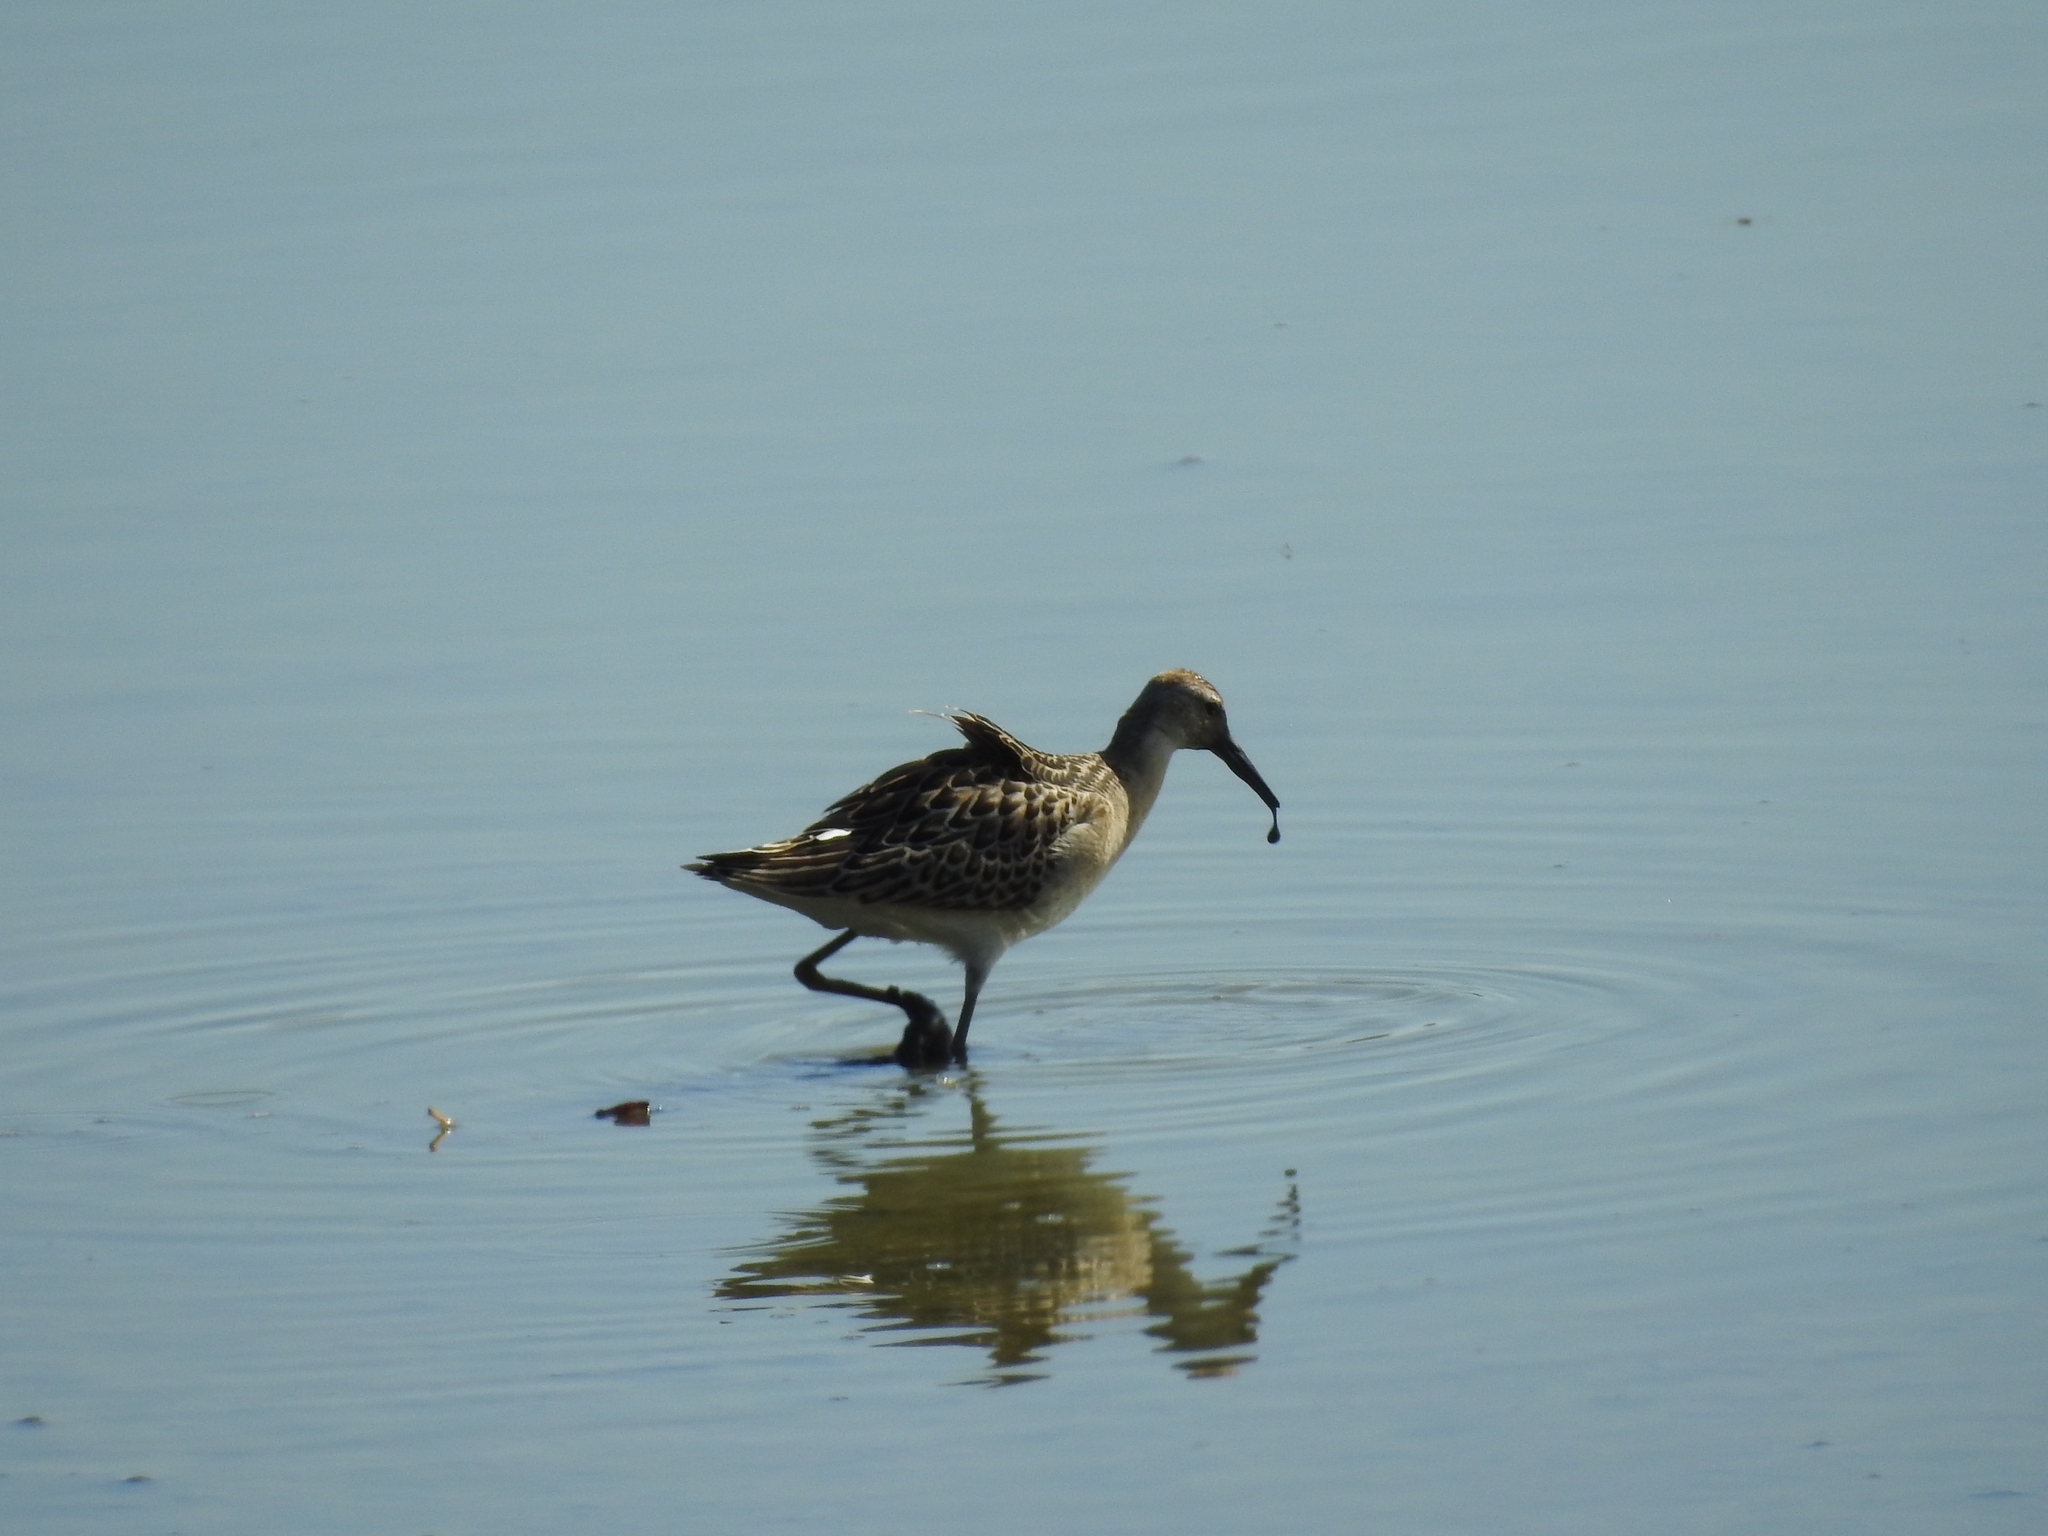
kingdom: Animalia
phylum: Chordata
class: Aves
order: Charadriiformes
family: Scolopacidae
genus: Calidris
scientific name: Calidris pugnax
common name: Ruff
